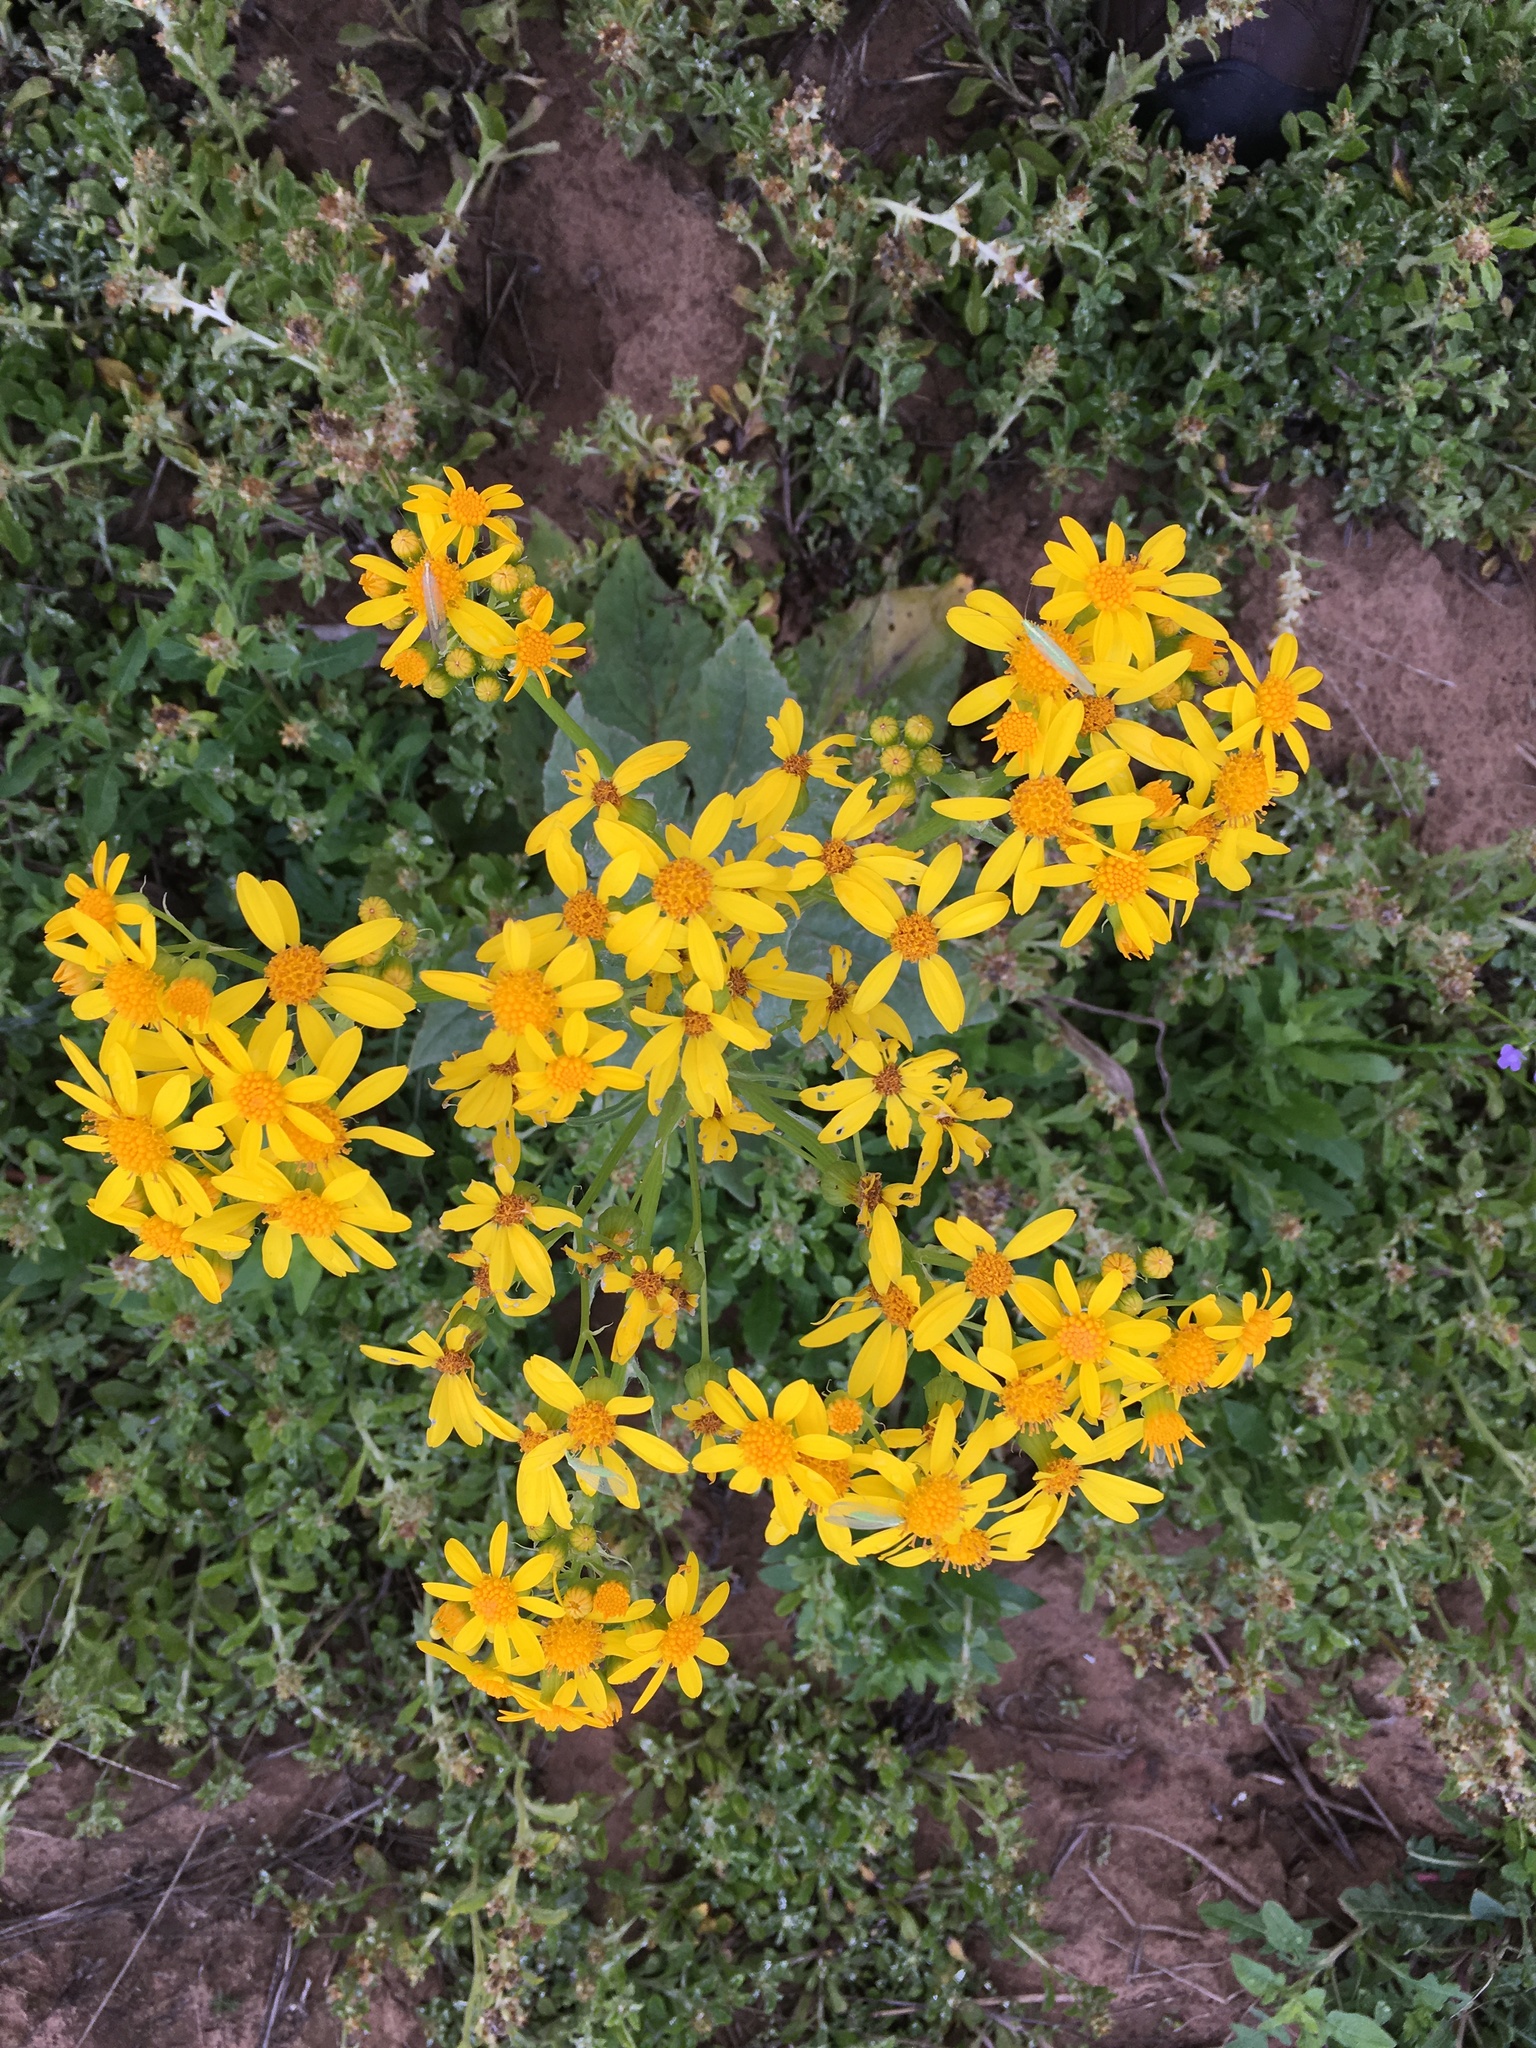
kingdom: Plantae
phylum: Tracheophyta
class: Magnoliopsida
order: Asterales
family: Asteraceae
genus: Senecio
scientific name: Senecio ampullaceus
